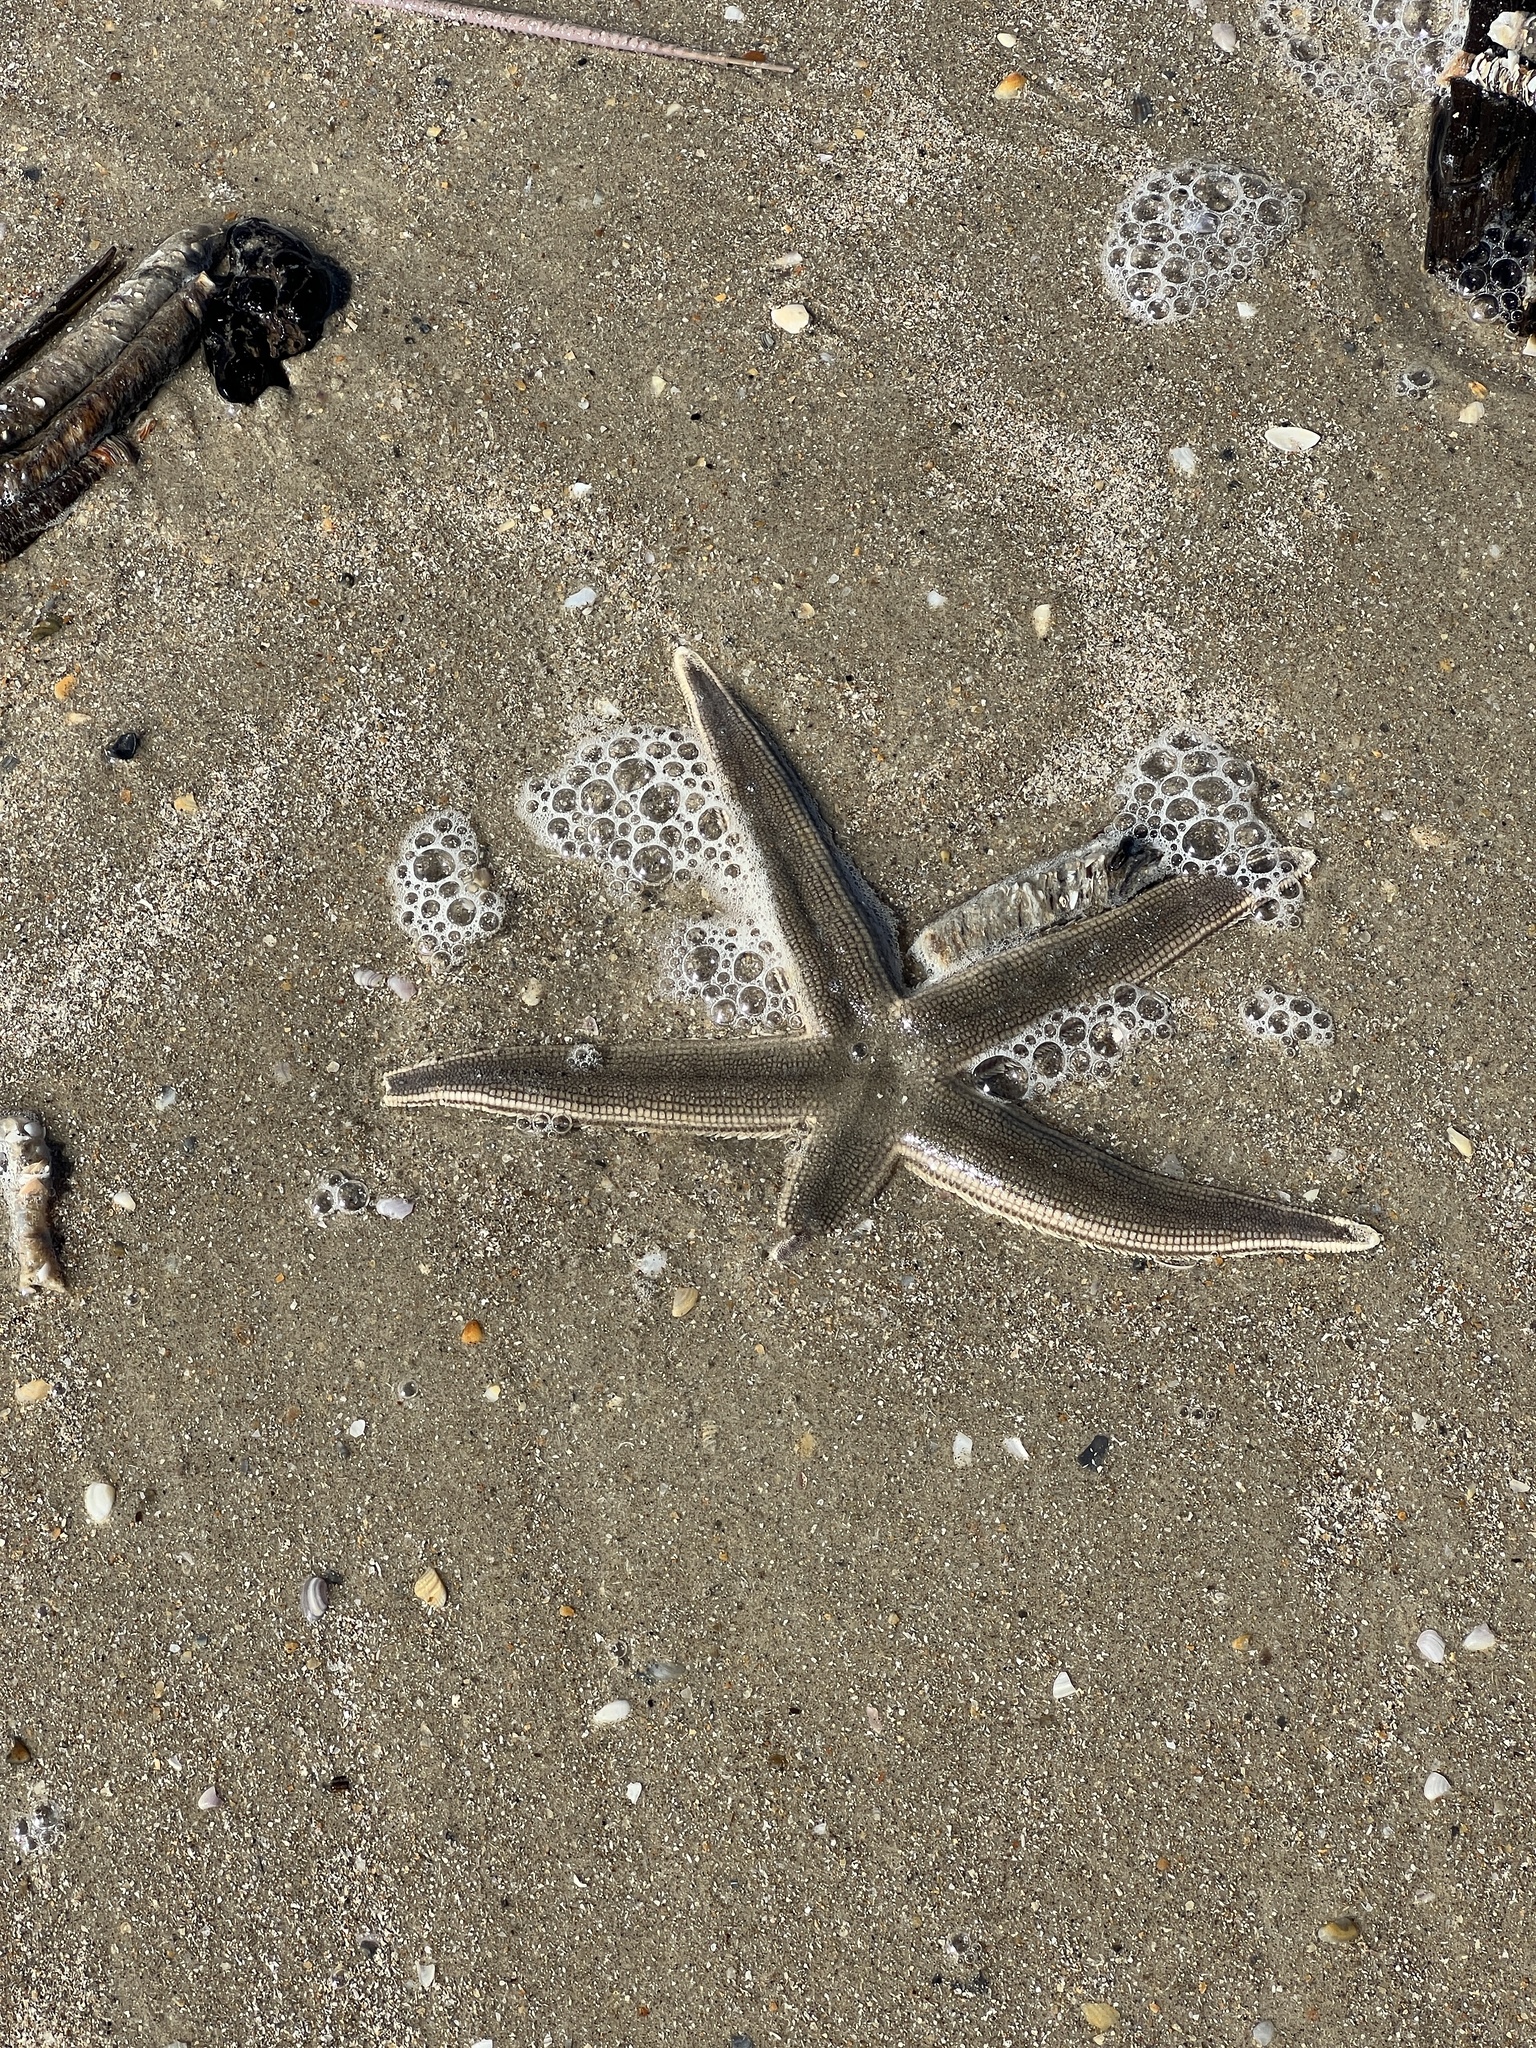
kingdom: Animalia
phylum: Echinodermata
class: Asteroidea
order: Paxillosida
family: Luidiidae
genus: Luidia
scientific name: Luidia clathrata
